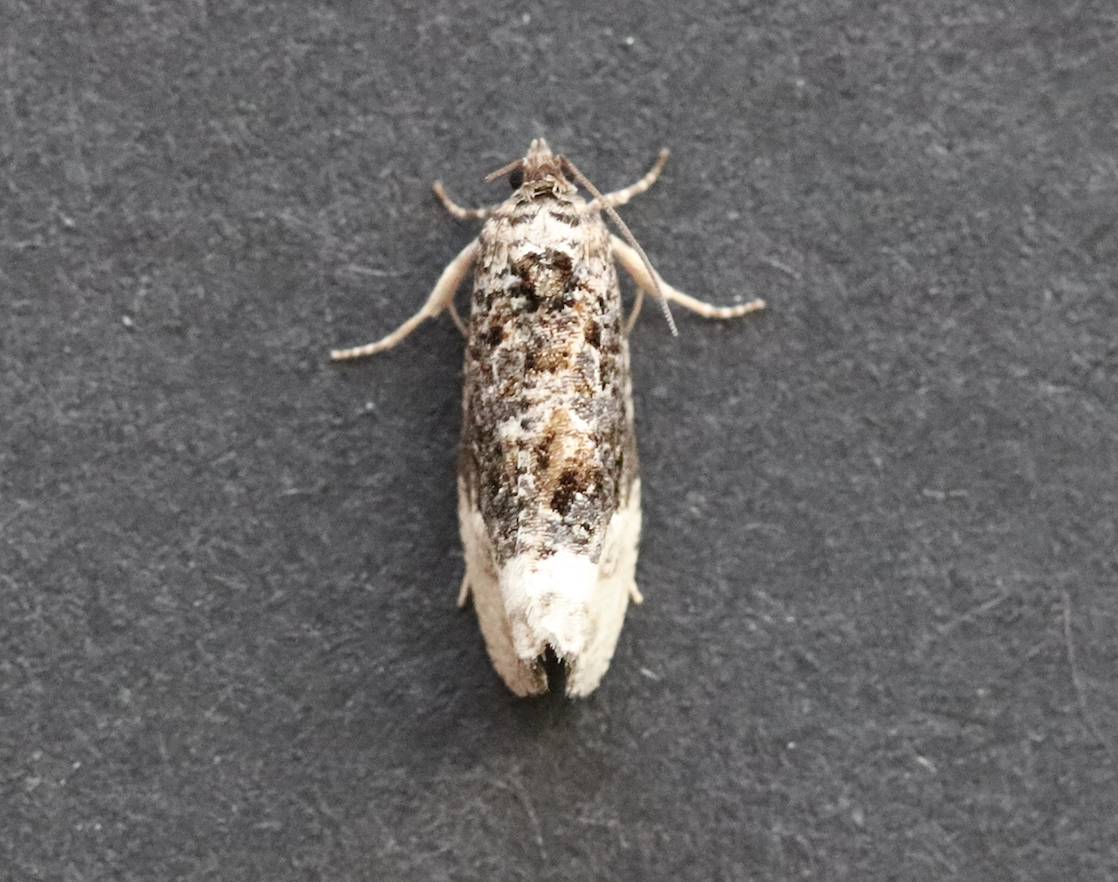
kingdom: Animalia
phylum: Arthropoda
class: Insecta
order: Lepidoptera
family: Tortricidae
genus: Hedya
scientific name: Hedya nubiferana
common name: Marbled orchard tortrix
